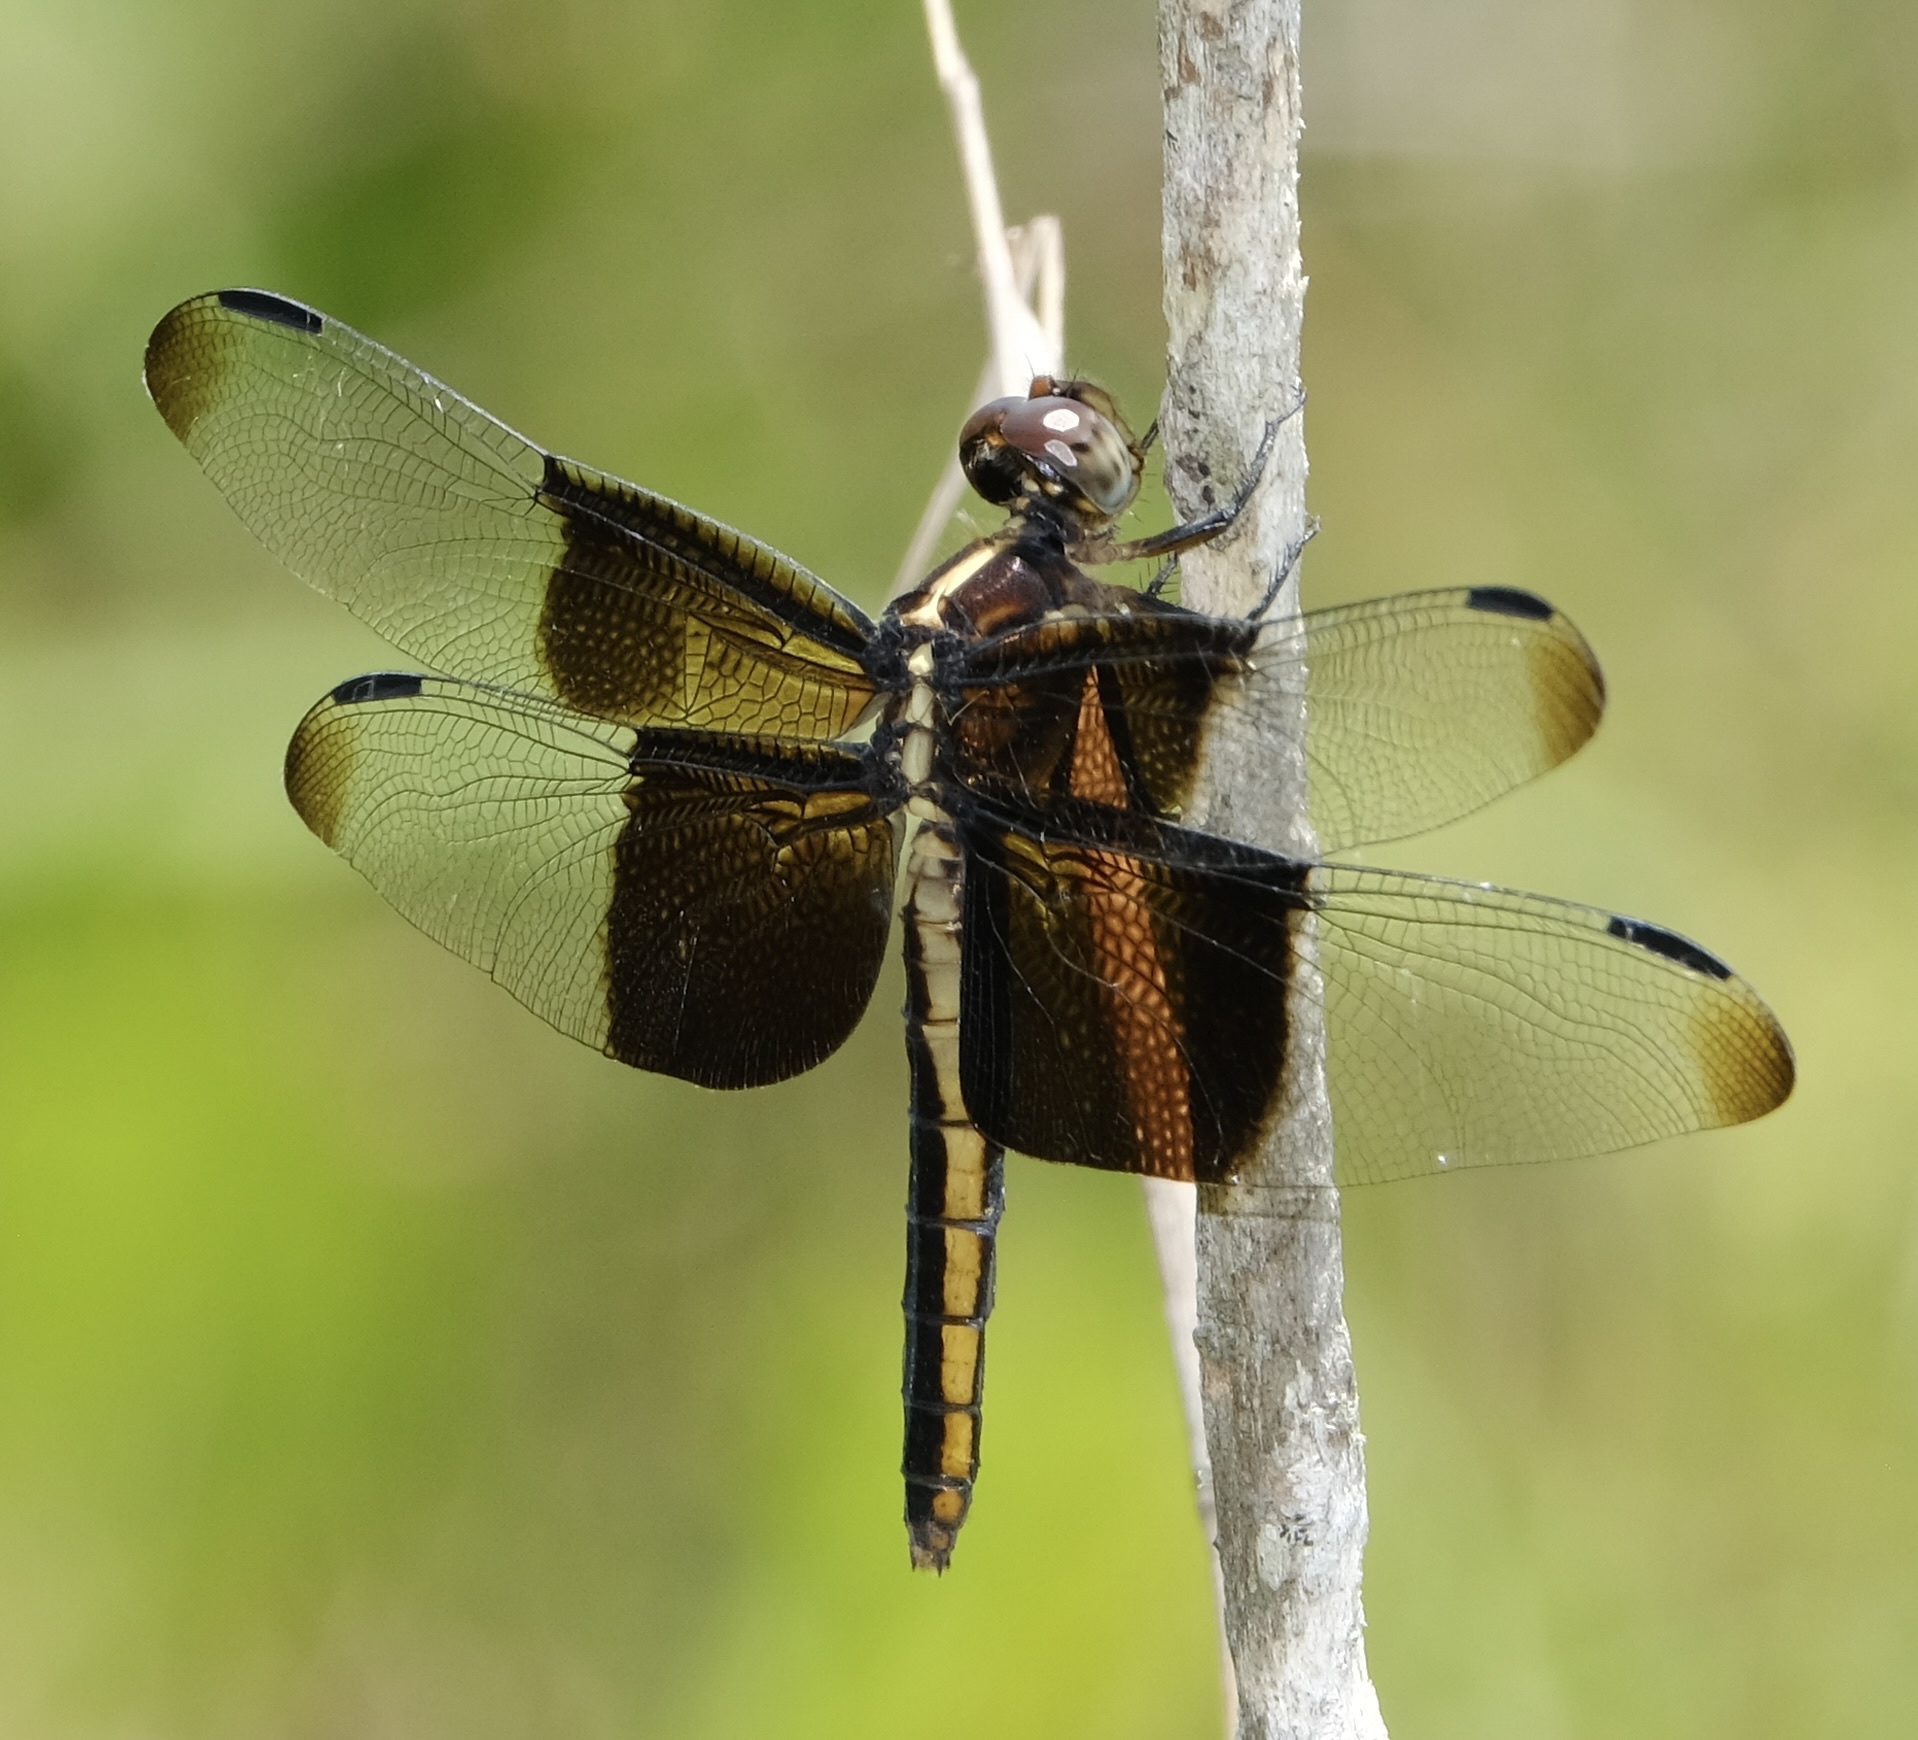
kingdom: Animalia
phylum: Arthropoda
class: Insecta
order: Odonata
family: Libellulidae
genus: Libellula
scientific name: Libellula luctuosa
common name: Widow skimmer
